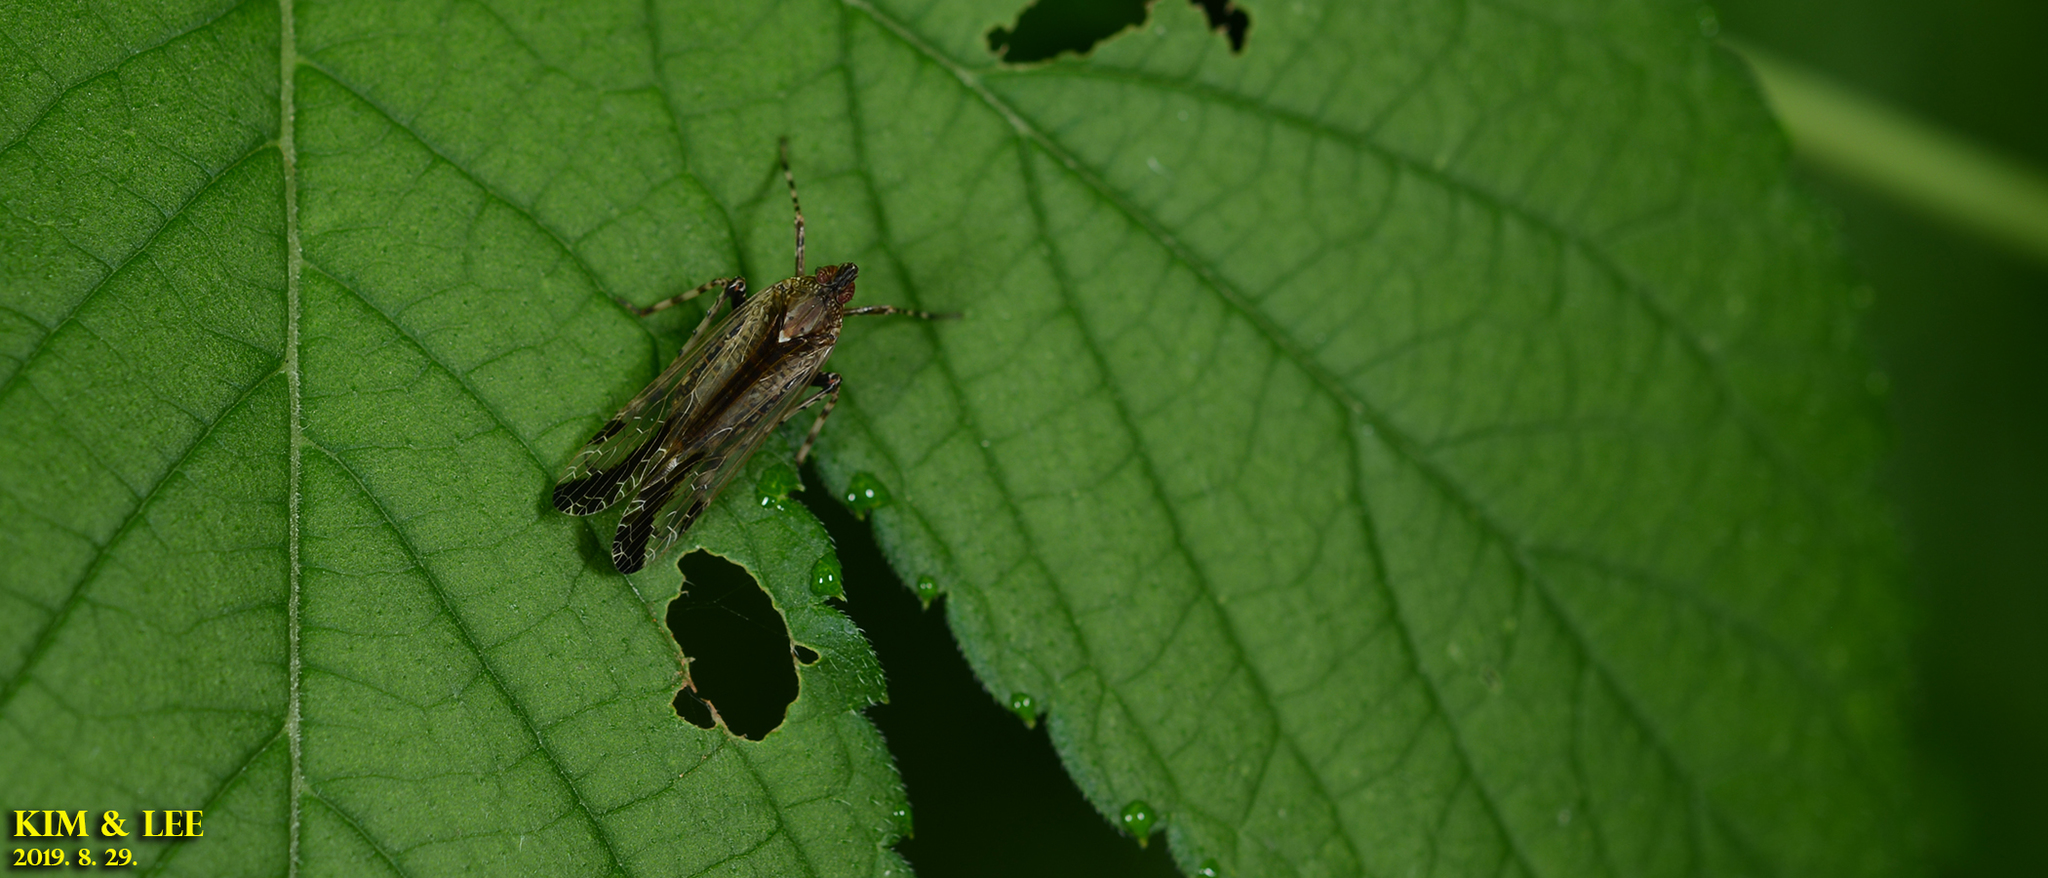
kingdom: Animalia
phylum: Arthropoda
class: Insecta
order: Hemiptera
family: Dictyopharidae
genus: Orthopagus
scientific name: Orthopagus lunulifer
